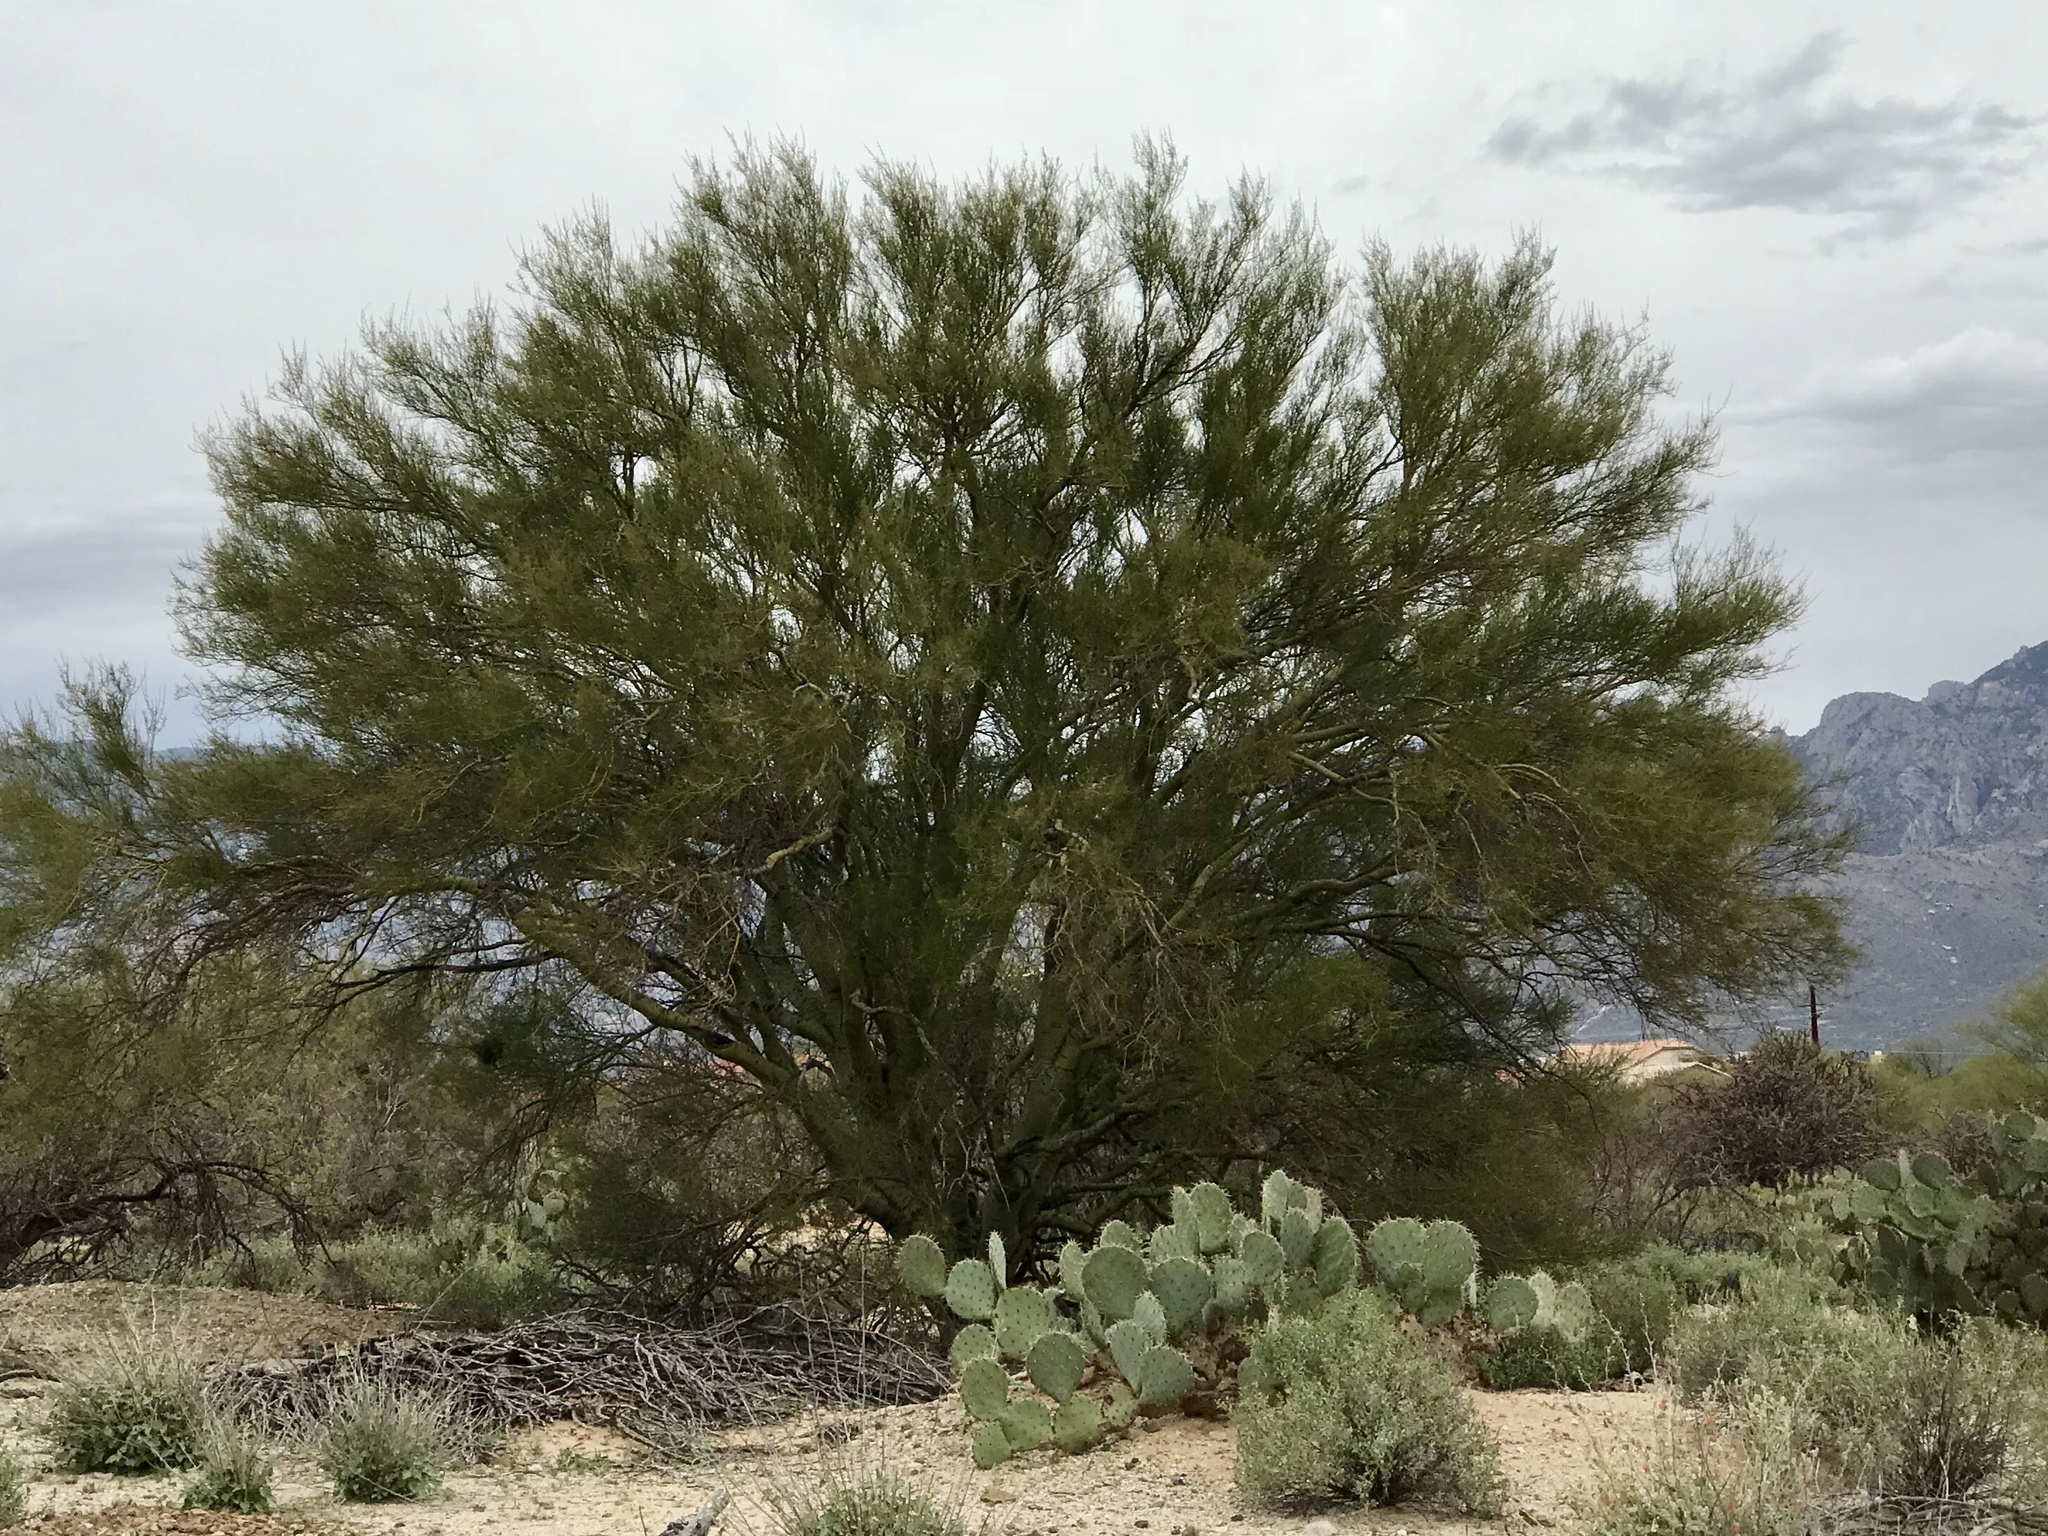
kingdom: Plantae
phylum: Tracheophyta
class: Magnoliopsida
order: Fabales
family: Fabaceae
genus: Parkinsonia
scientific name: Parkinsonia microphylla
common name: Yellow paloverde
